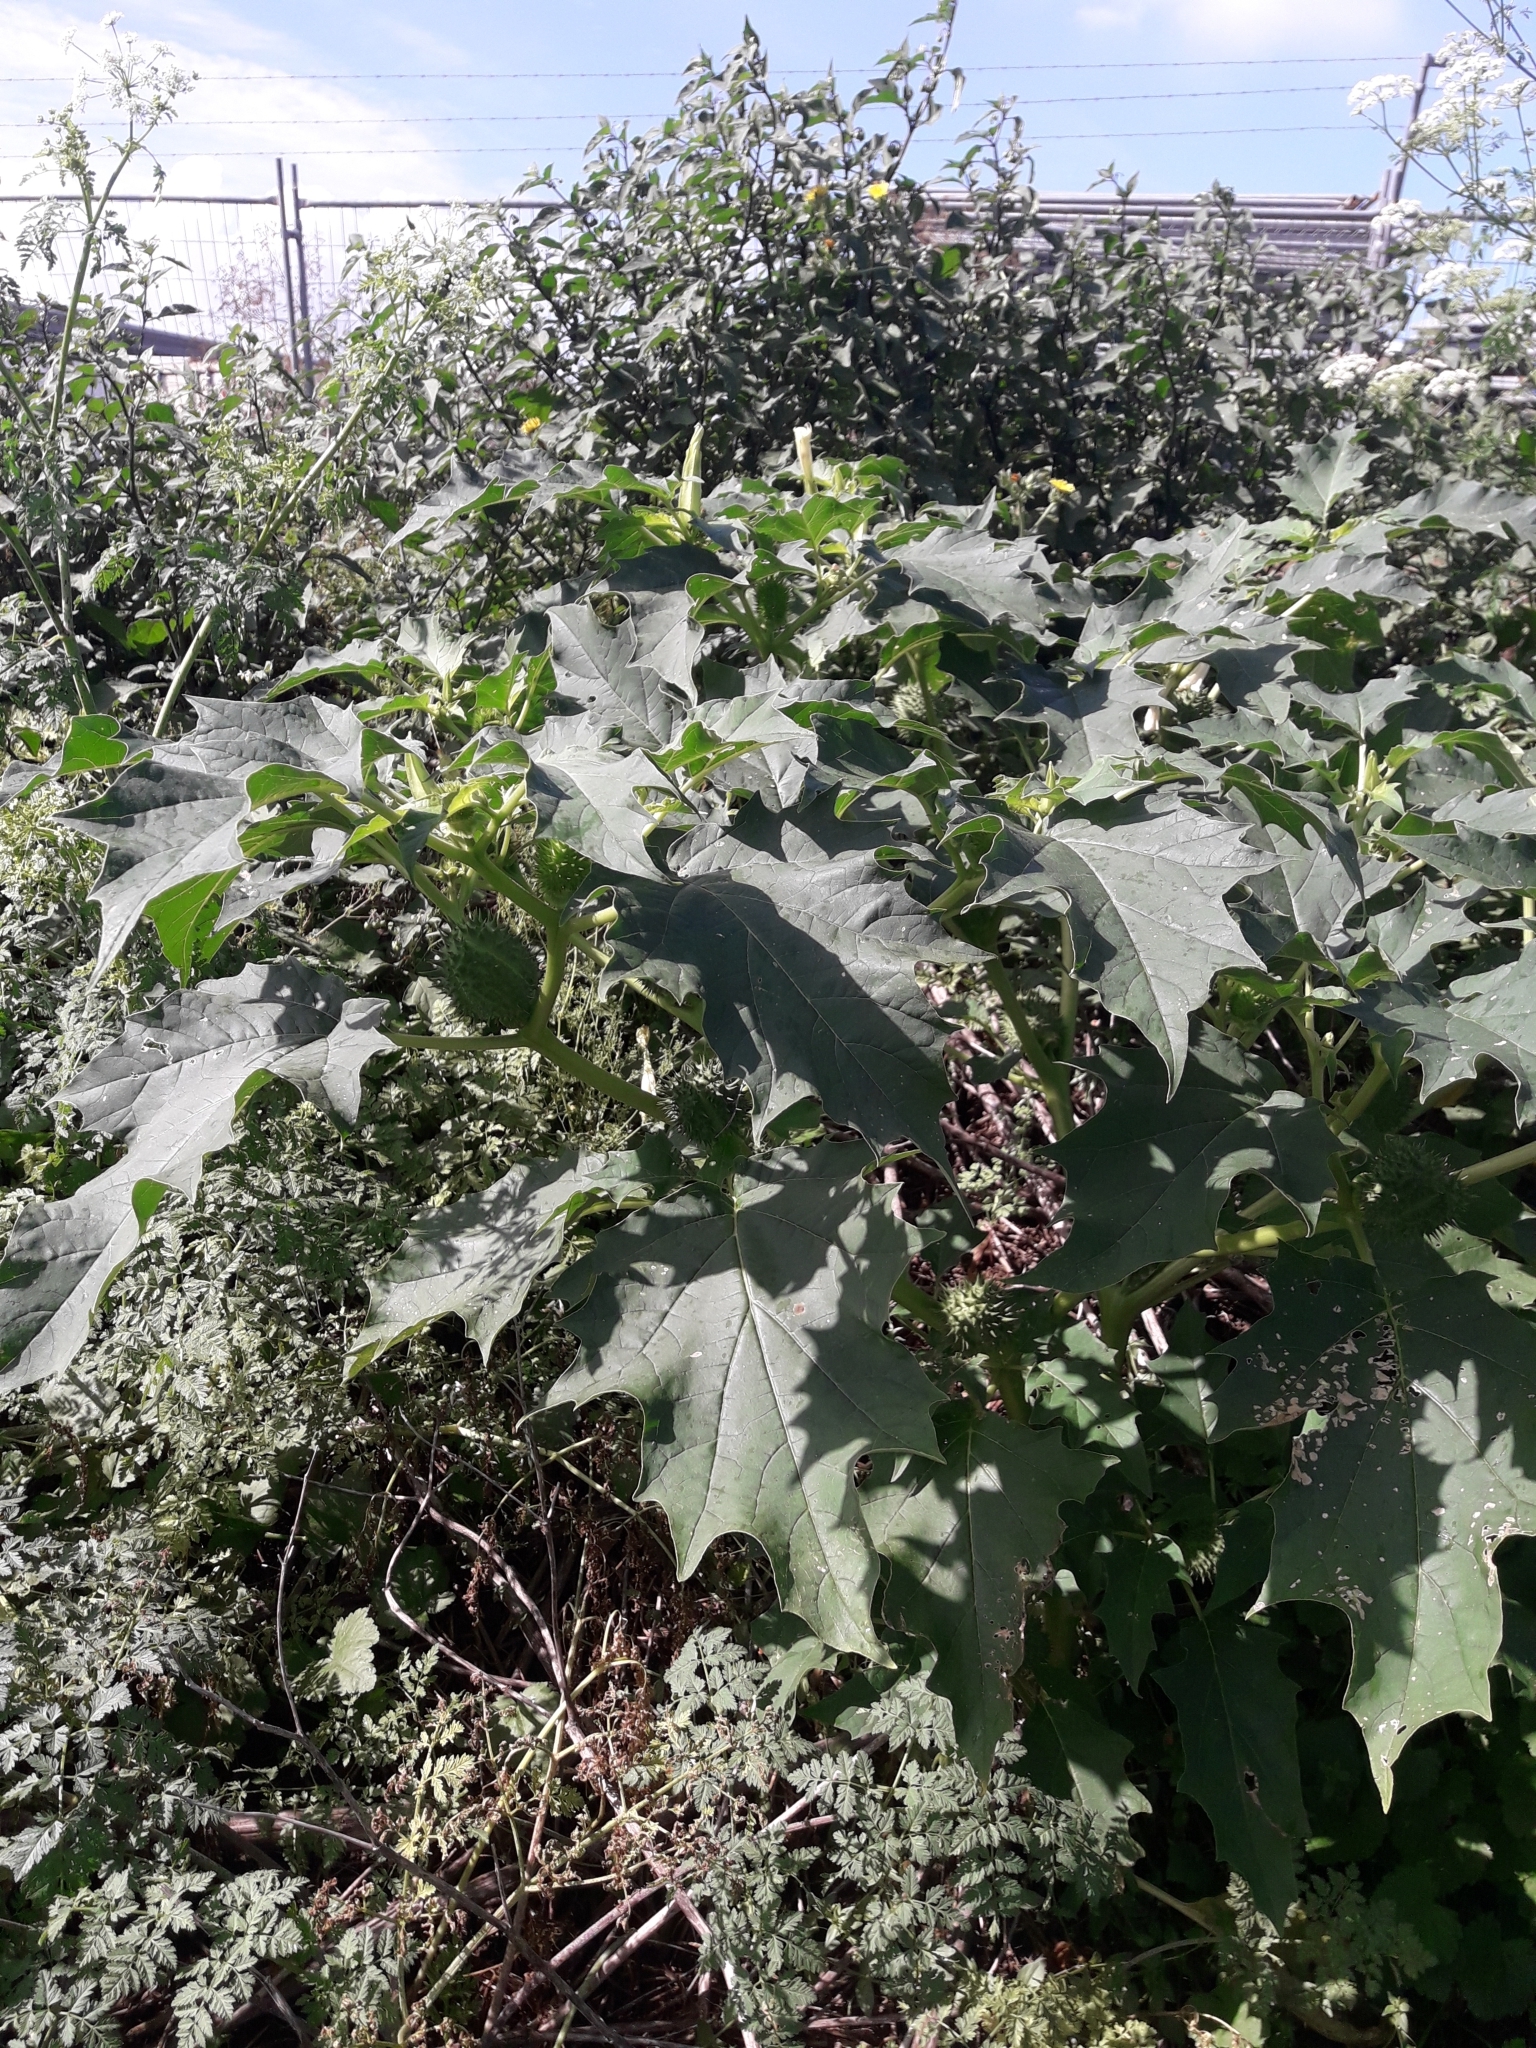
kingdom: Plantae
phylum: Tracheophyta
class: Magnoliopsida
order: Solanales
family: Solanaceae
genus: Datura
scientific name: Datura stramonium
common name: Thorn-apple
